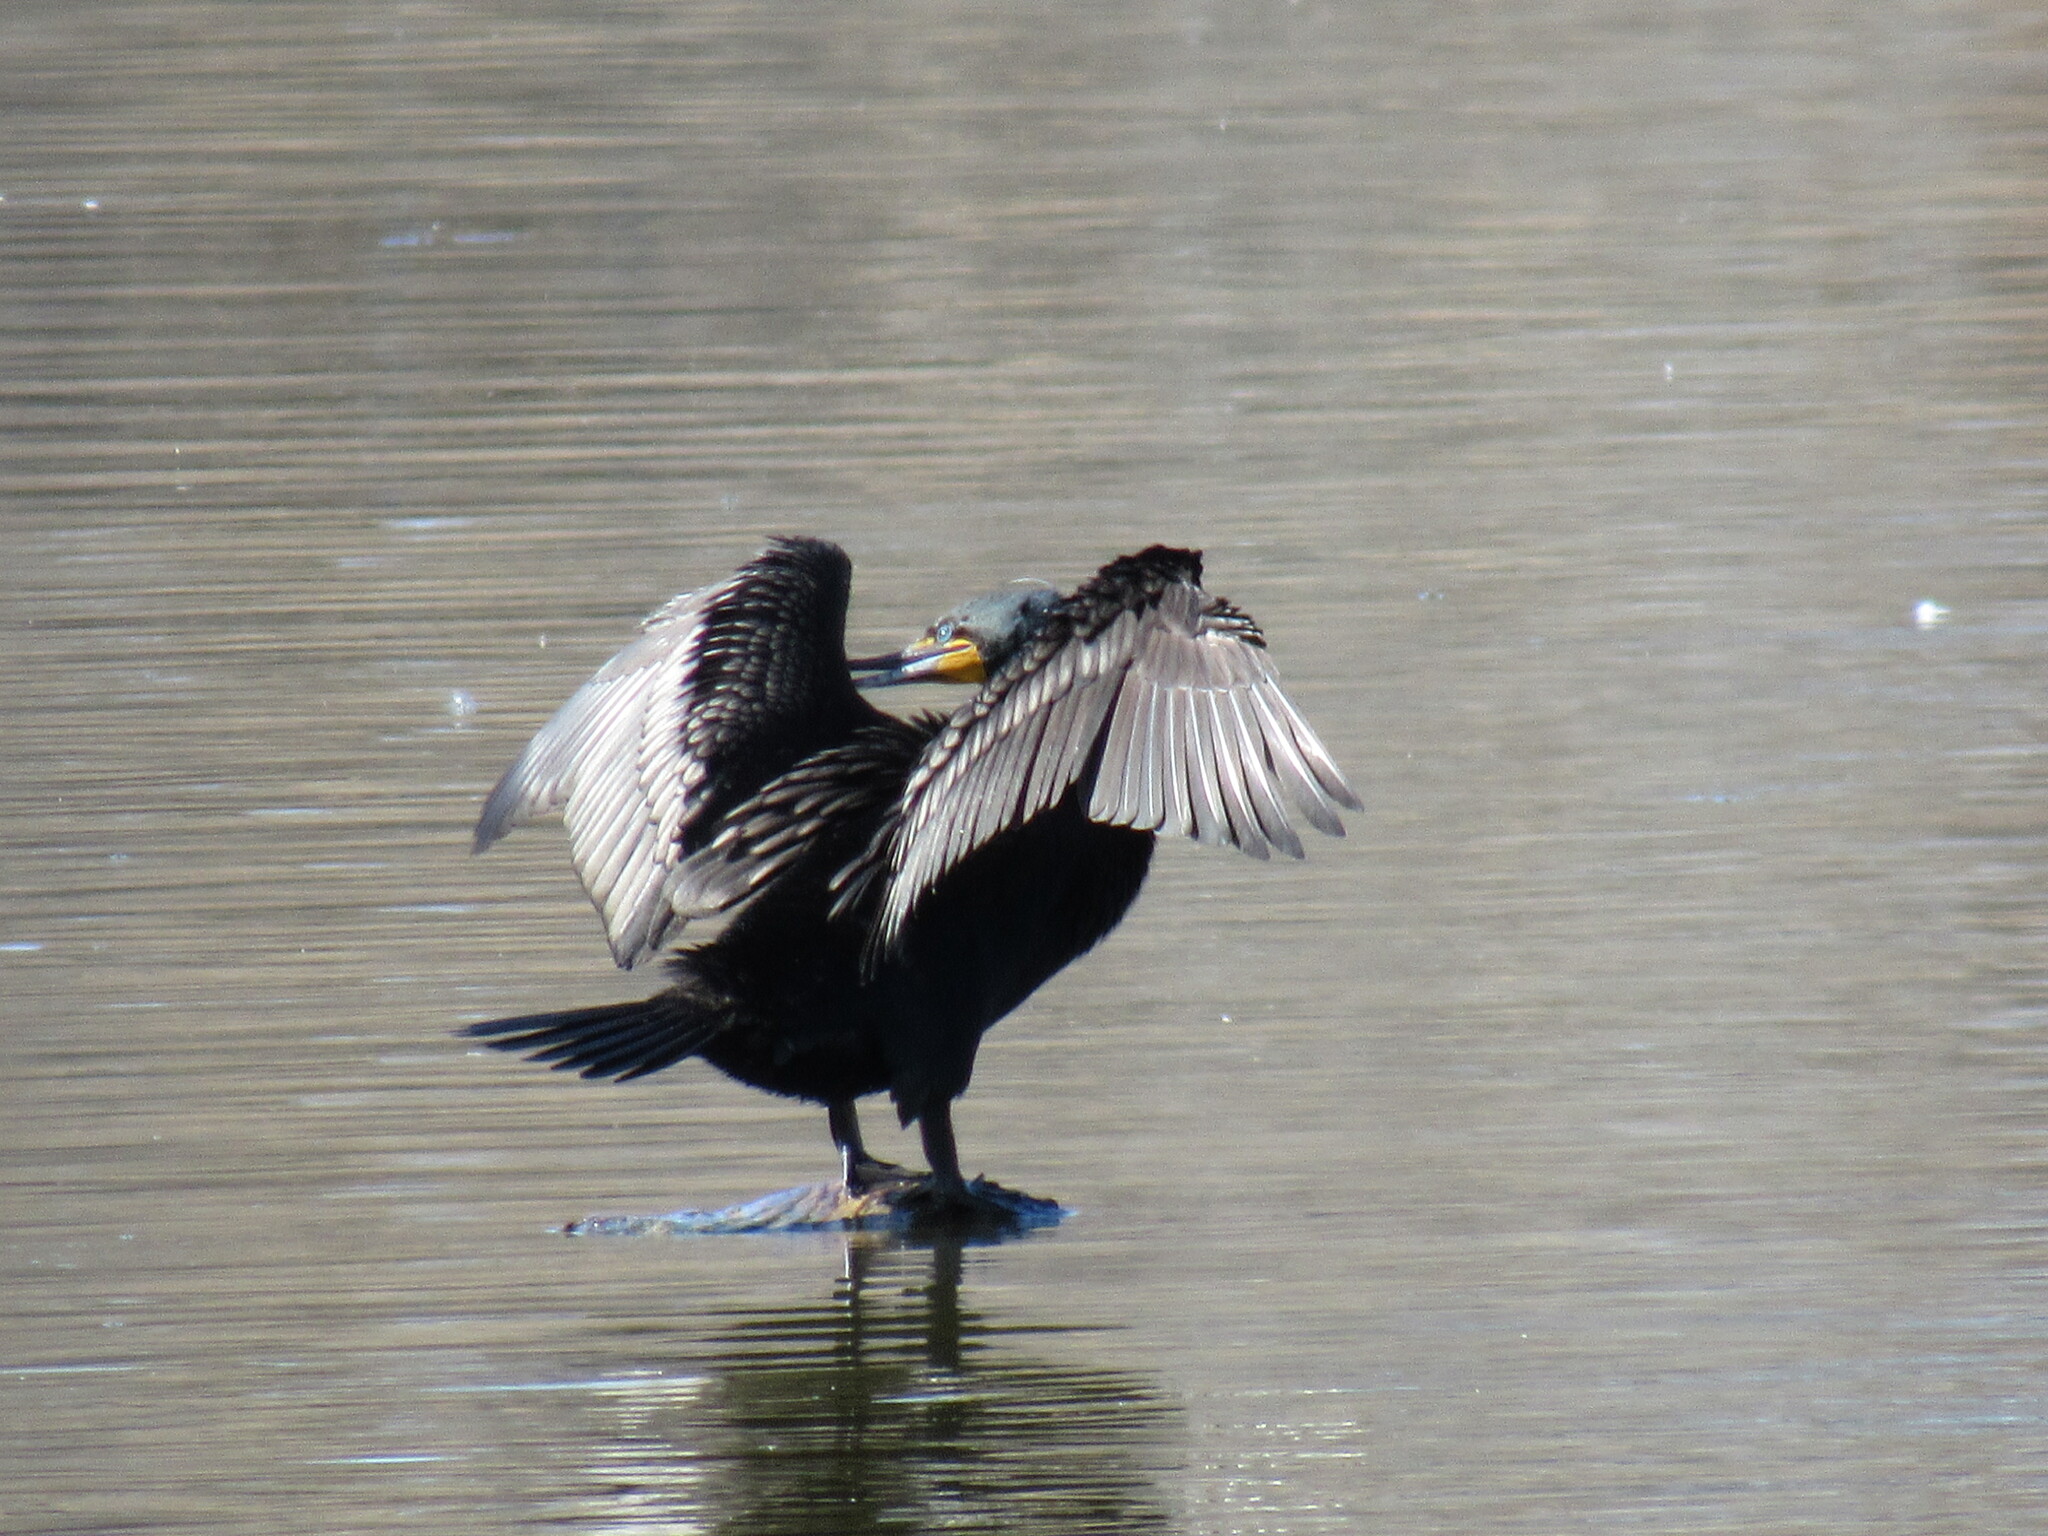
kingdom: Animalia
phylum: Chordata
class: Aves
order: Suliformes
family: Phalacrocoracidae
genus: Phalacrocorax
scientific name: Phalacrocorax auritus
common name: Double-crested cormorant
